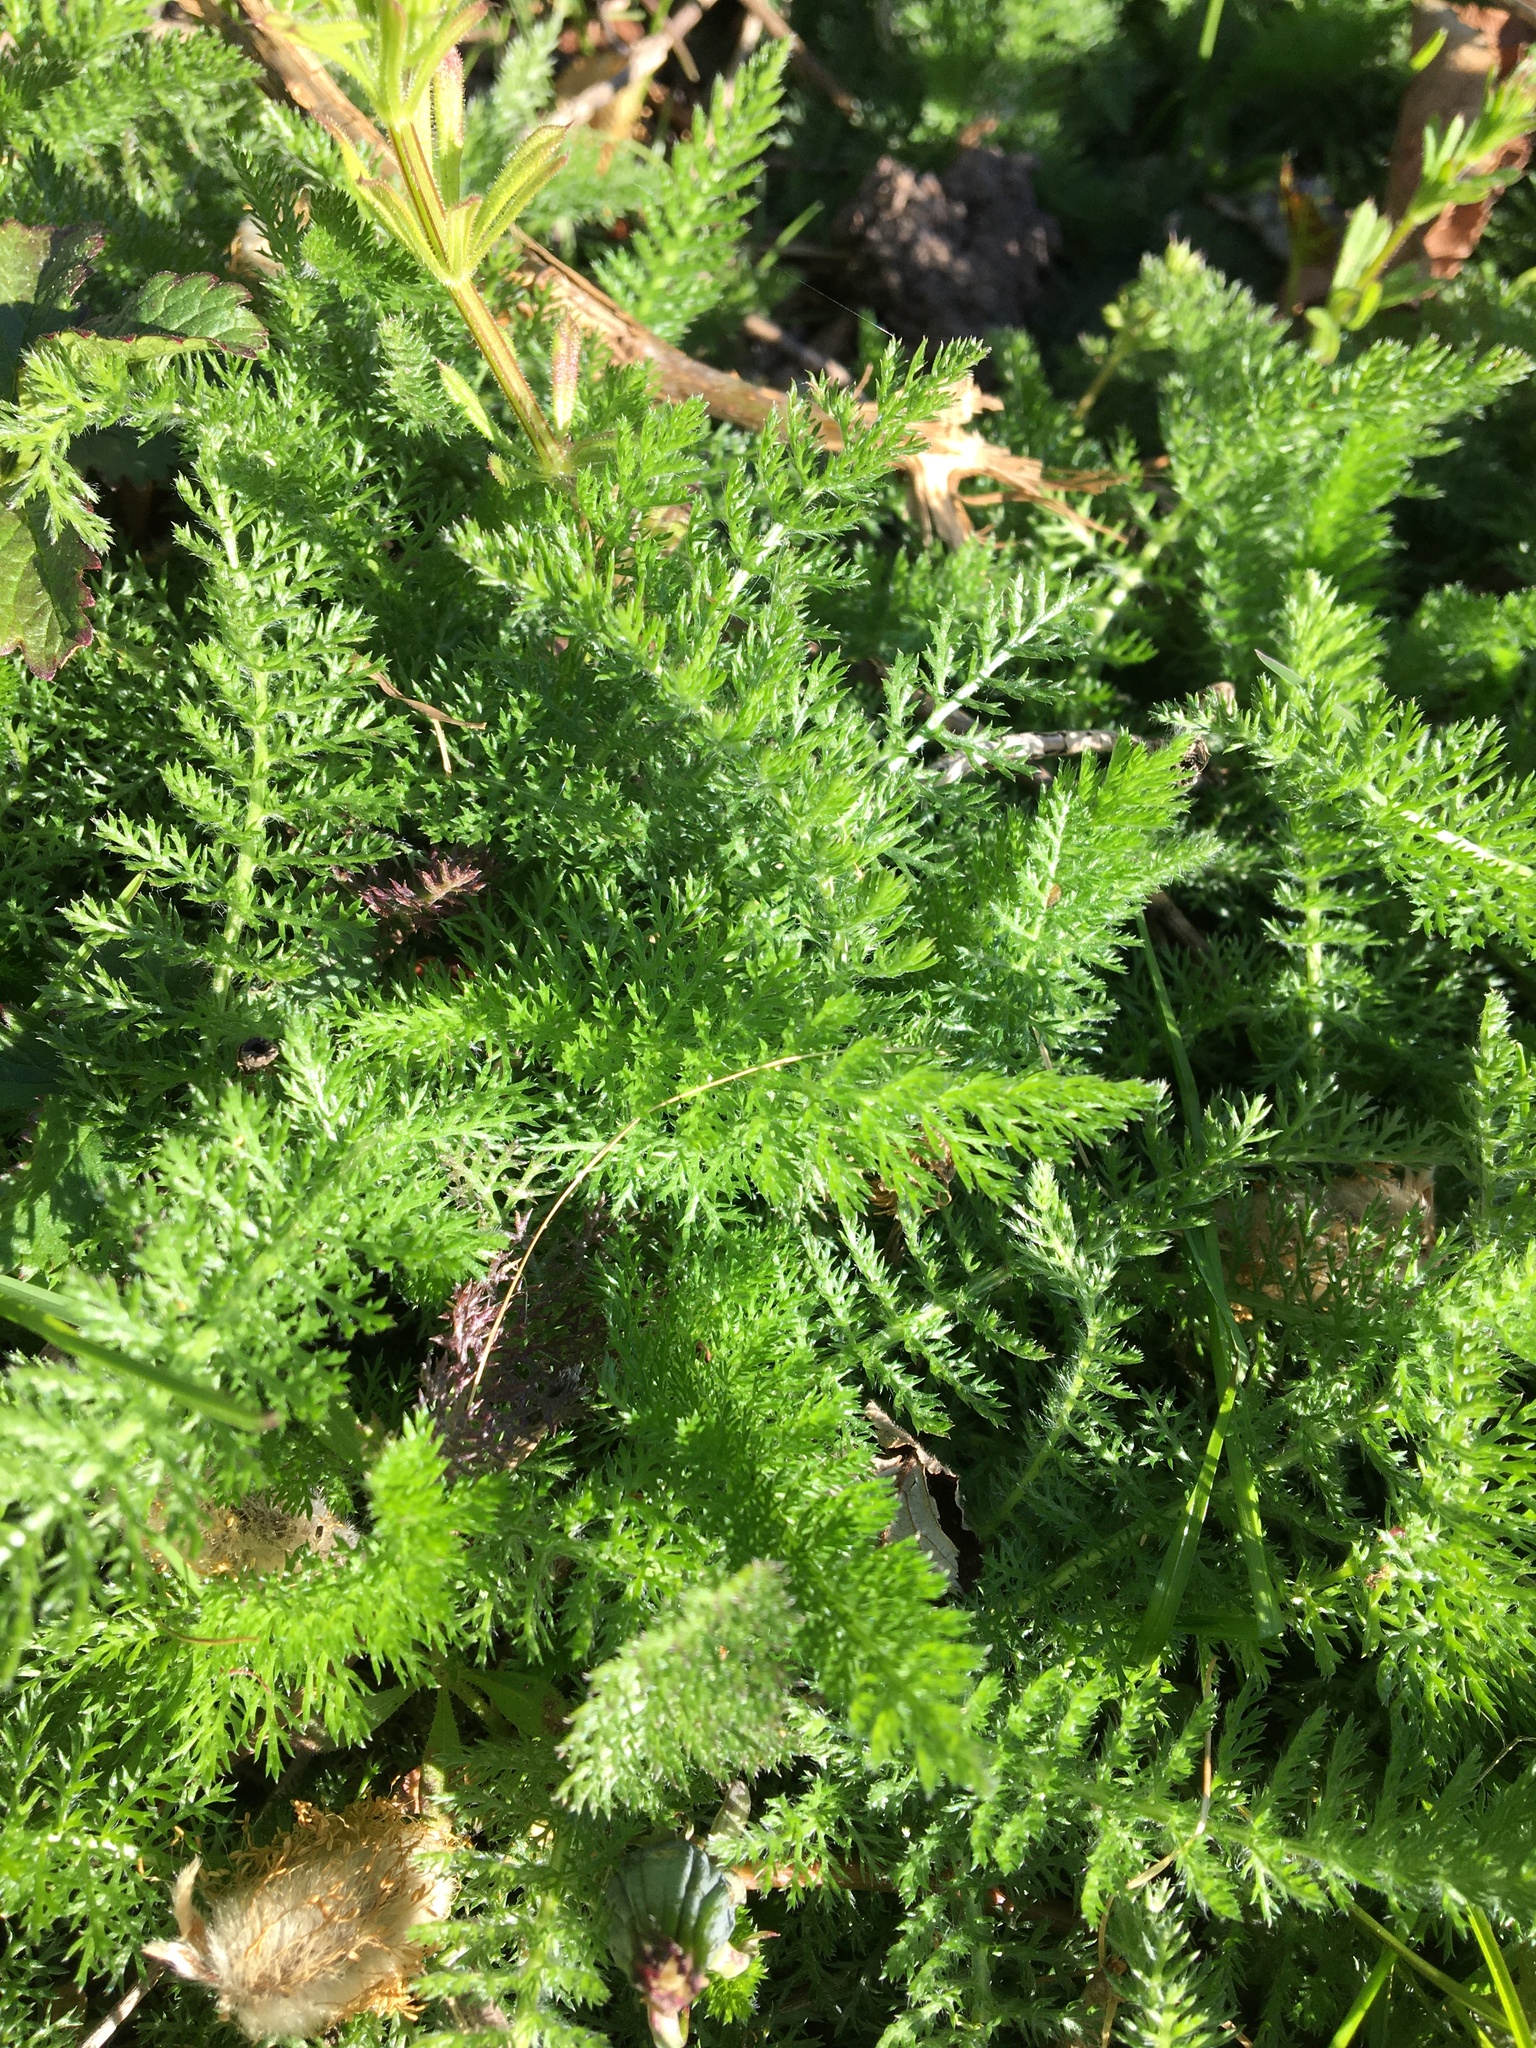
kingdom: Plantae
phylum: Tracheophyta
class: Magnoliopsida
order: Asterales
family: Asteraceae
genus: Achillea
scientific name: Achillea millefolium
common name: Yarrow
